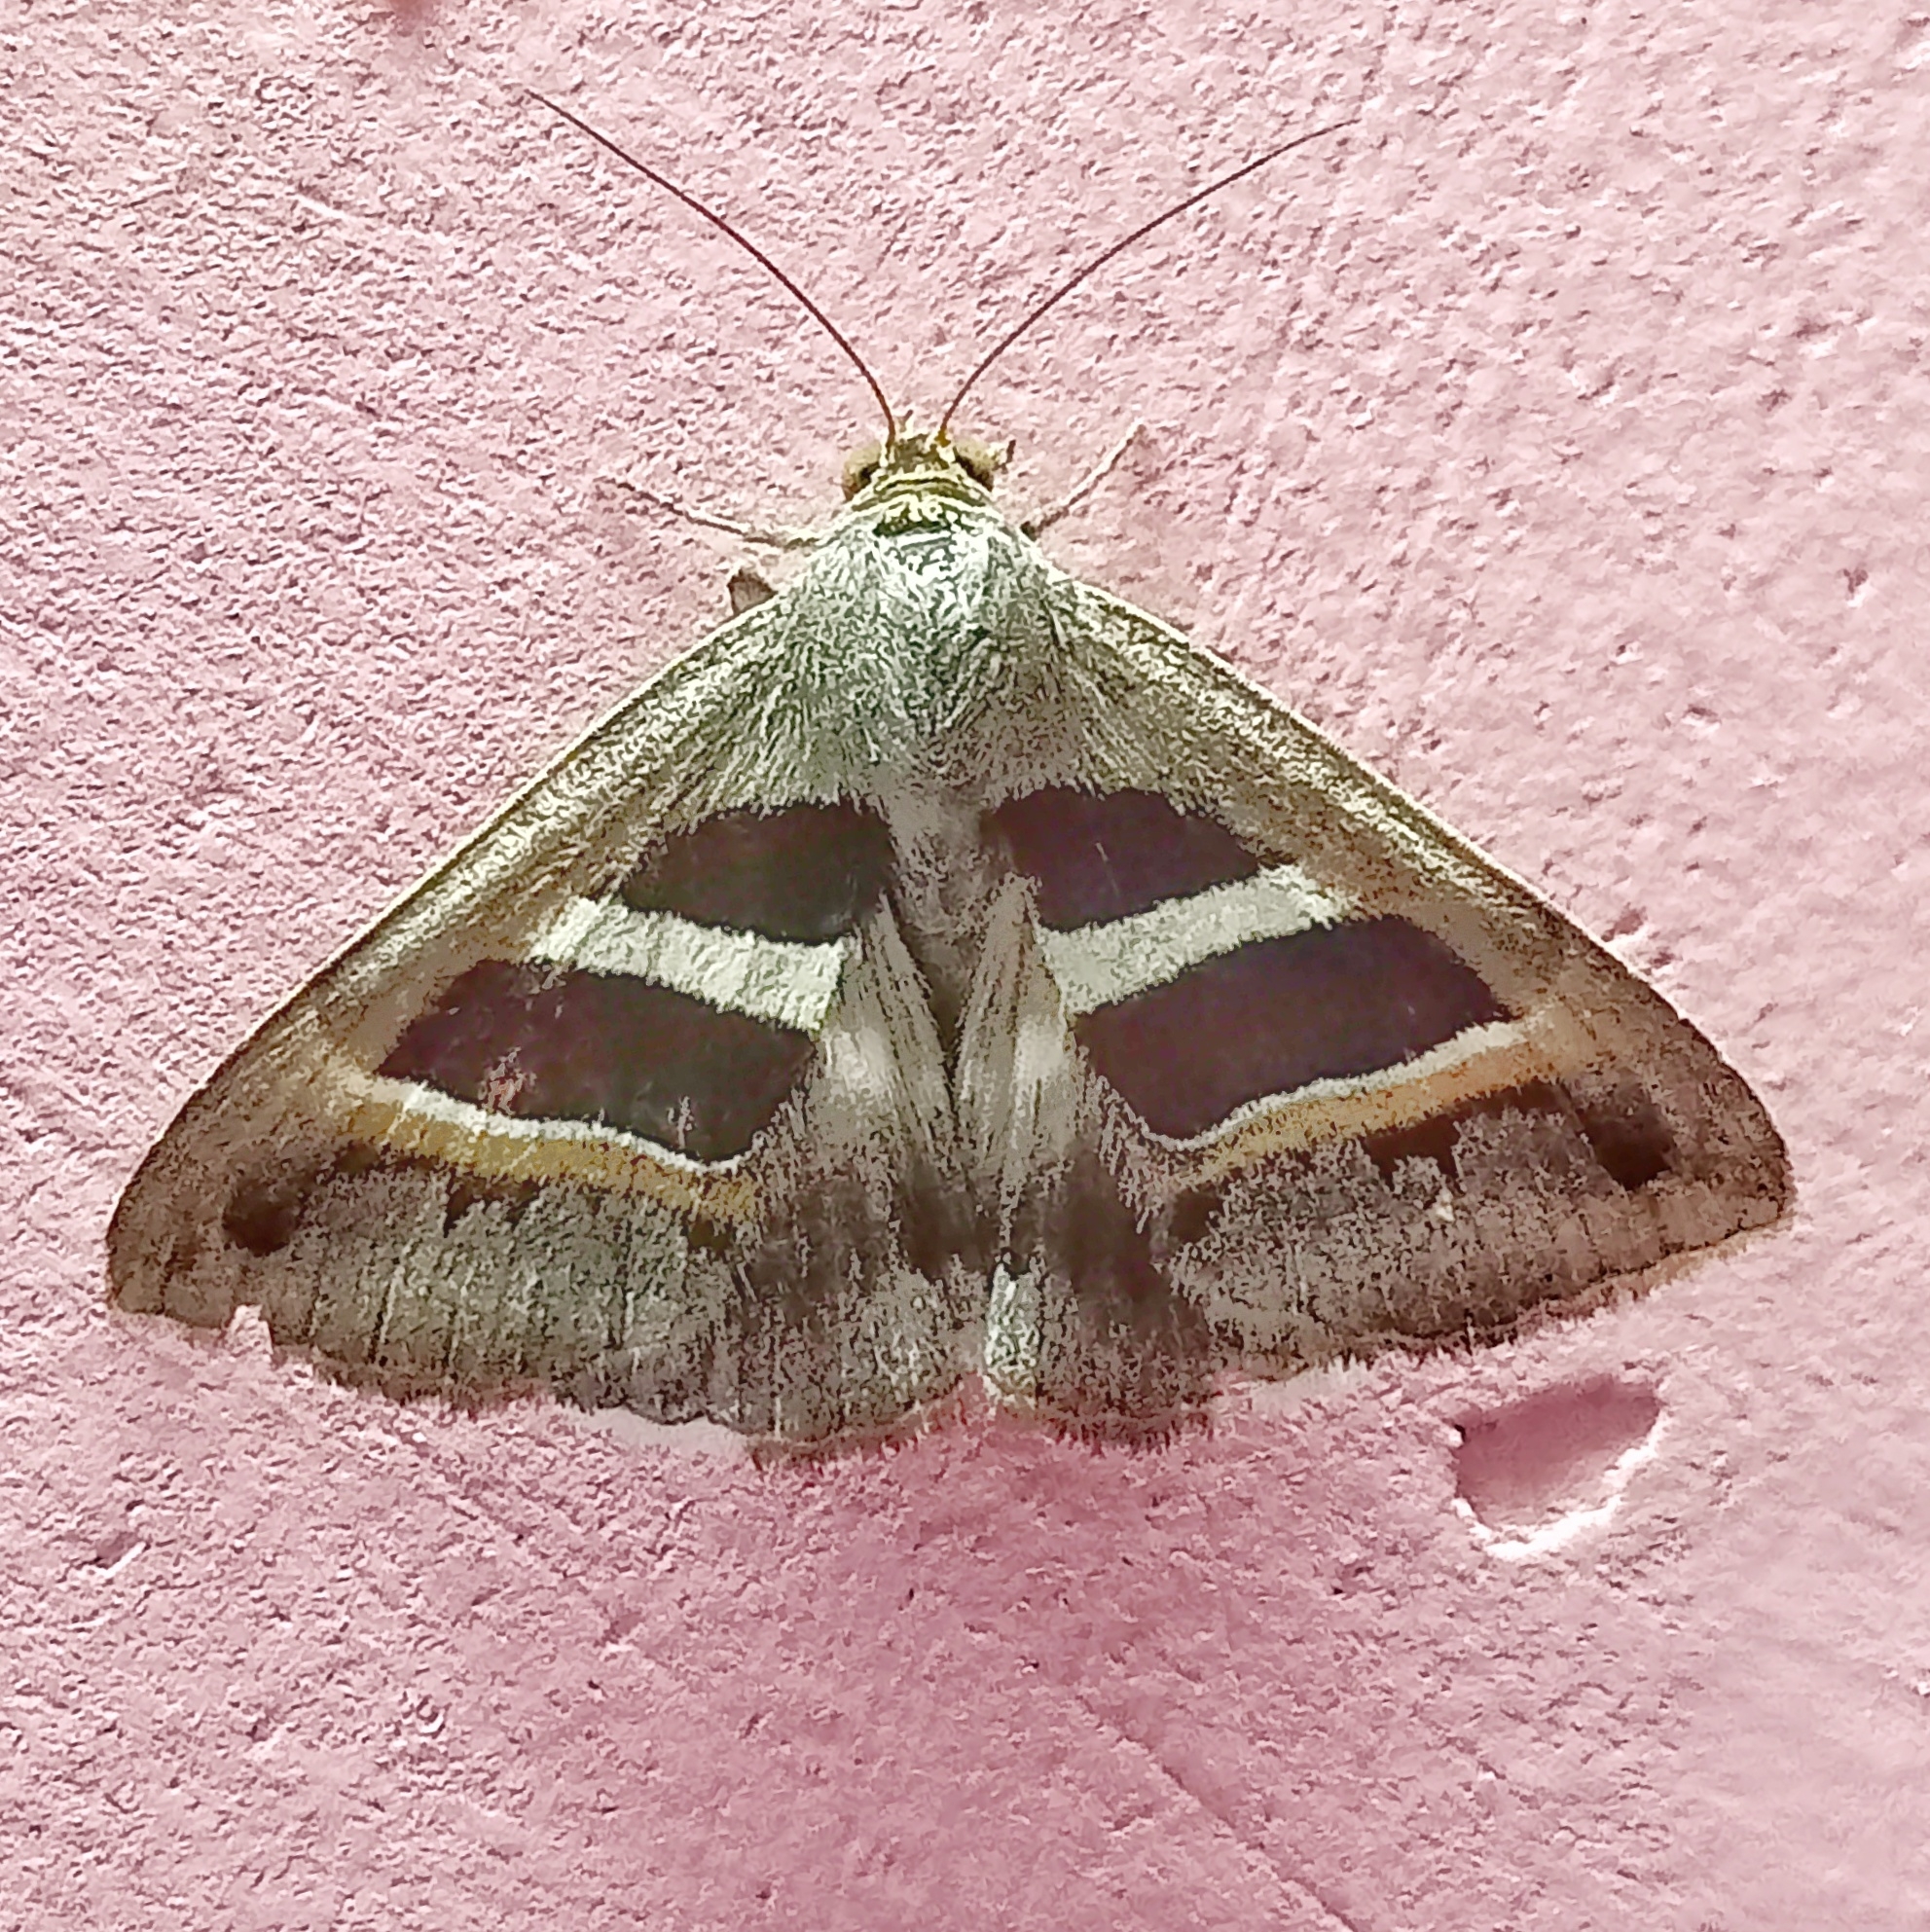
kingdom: Animalia
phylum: Arthropoda
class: Insecta
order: Lepidoptera
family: Erebidae
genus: Grammodes
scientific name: Grammodes geometrica
